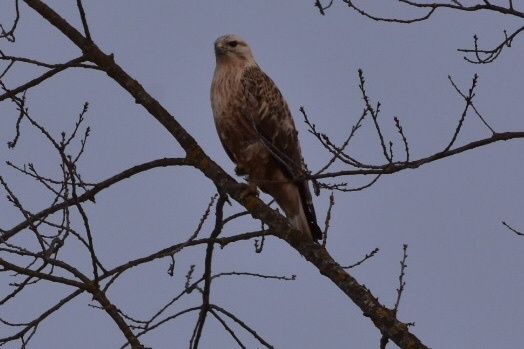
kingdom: Animalia
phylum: Chordata
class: Aves
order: Accipitriformes
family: Accipitridae
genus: Buteo
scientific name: Buteo rufinus
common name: Long-legged buzzard
